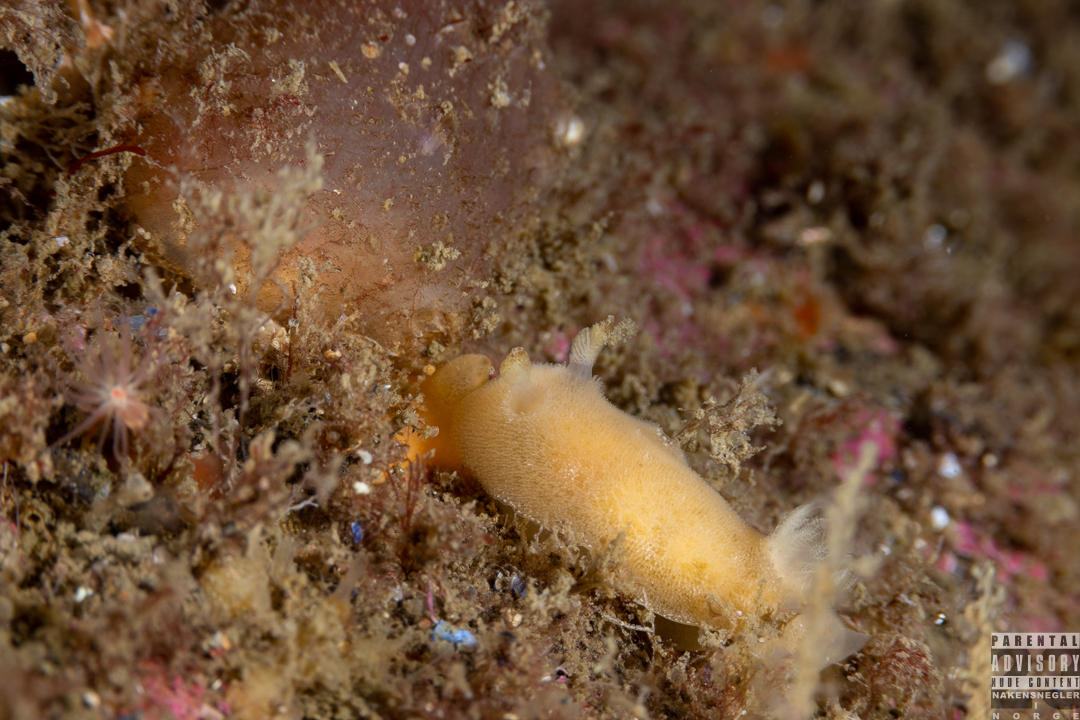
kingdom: Animalia
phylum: Mollusca
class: Gastropoda
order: Nudibranchia
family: Discodorididae
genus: Jorunna
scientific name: Jorunna tomentosa
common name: Grey sea slug
